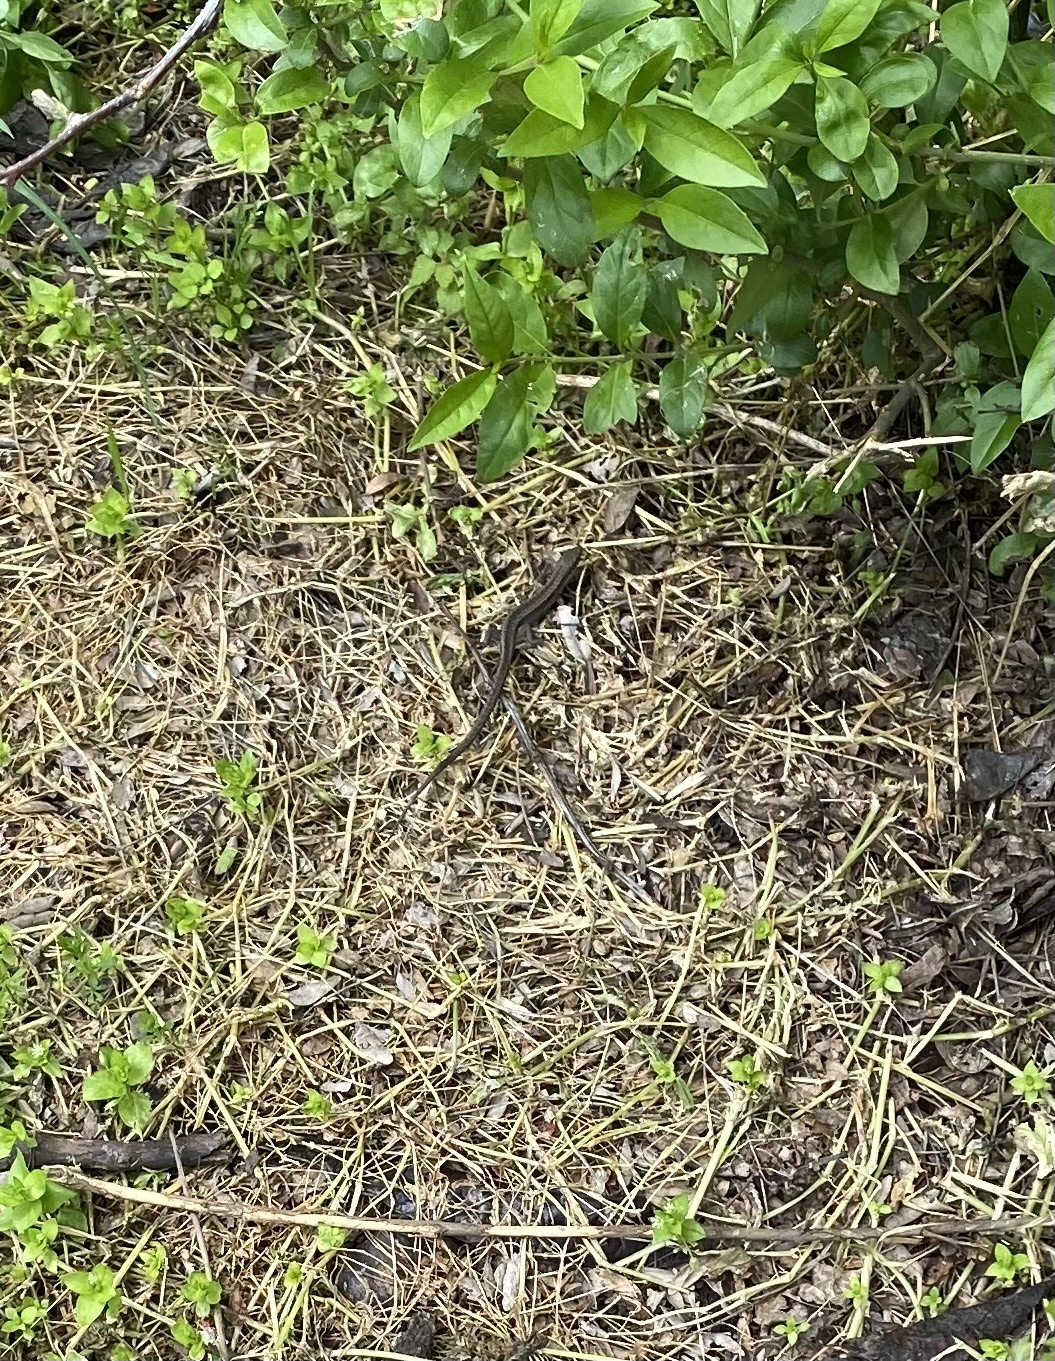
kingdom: Animalia
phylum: Chordata
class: Squamata
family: Lacertidae
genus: Darevskia
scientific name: Darevskia praticola
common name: Meadow lizard
